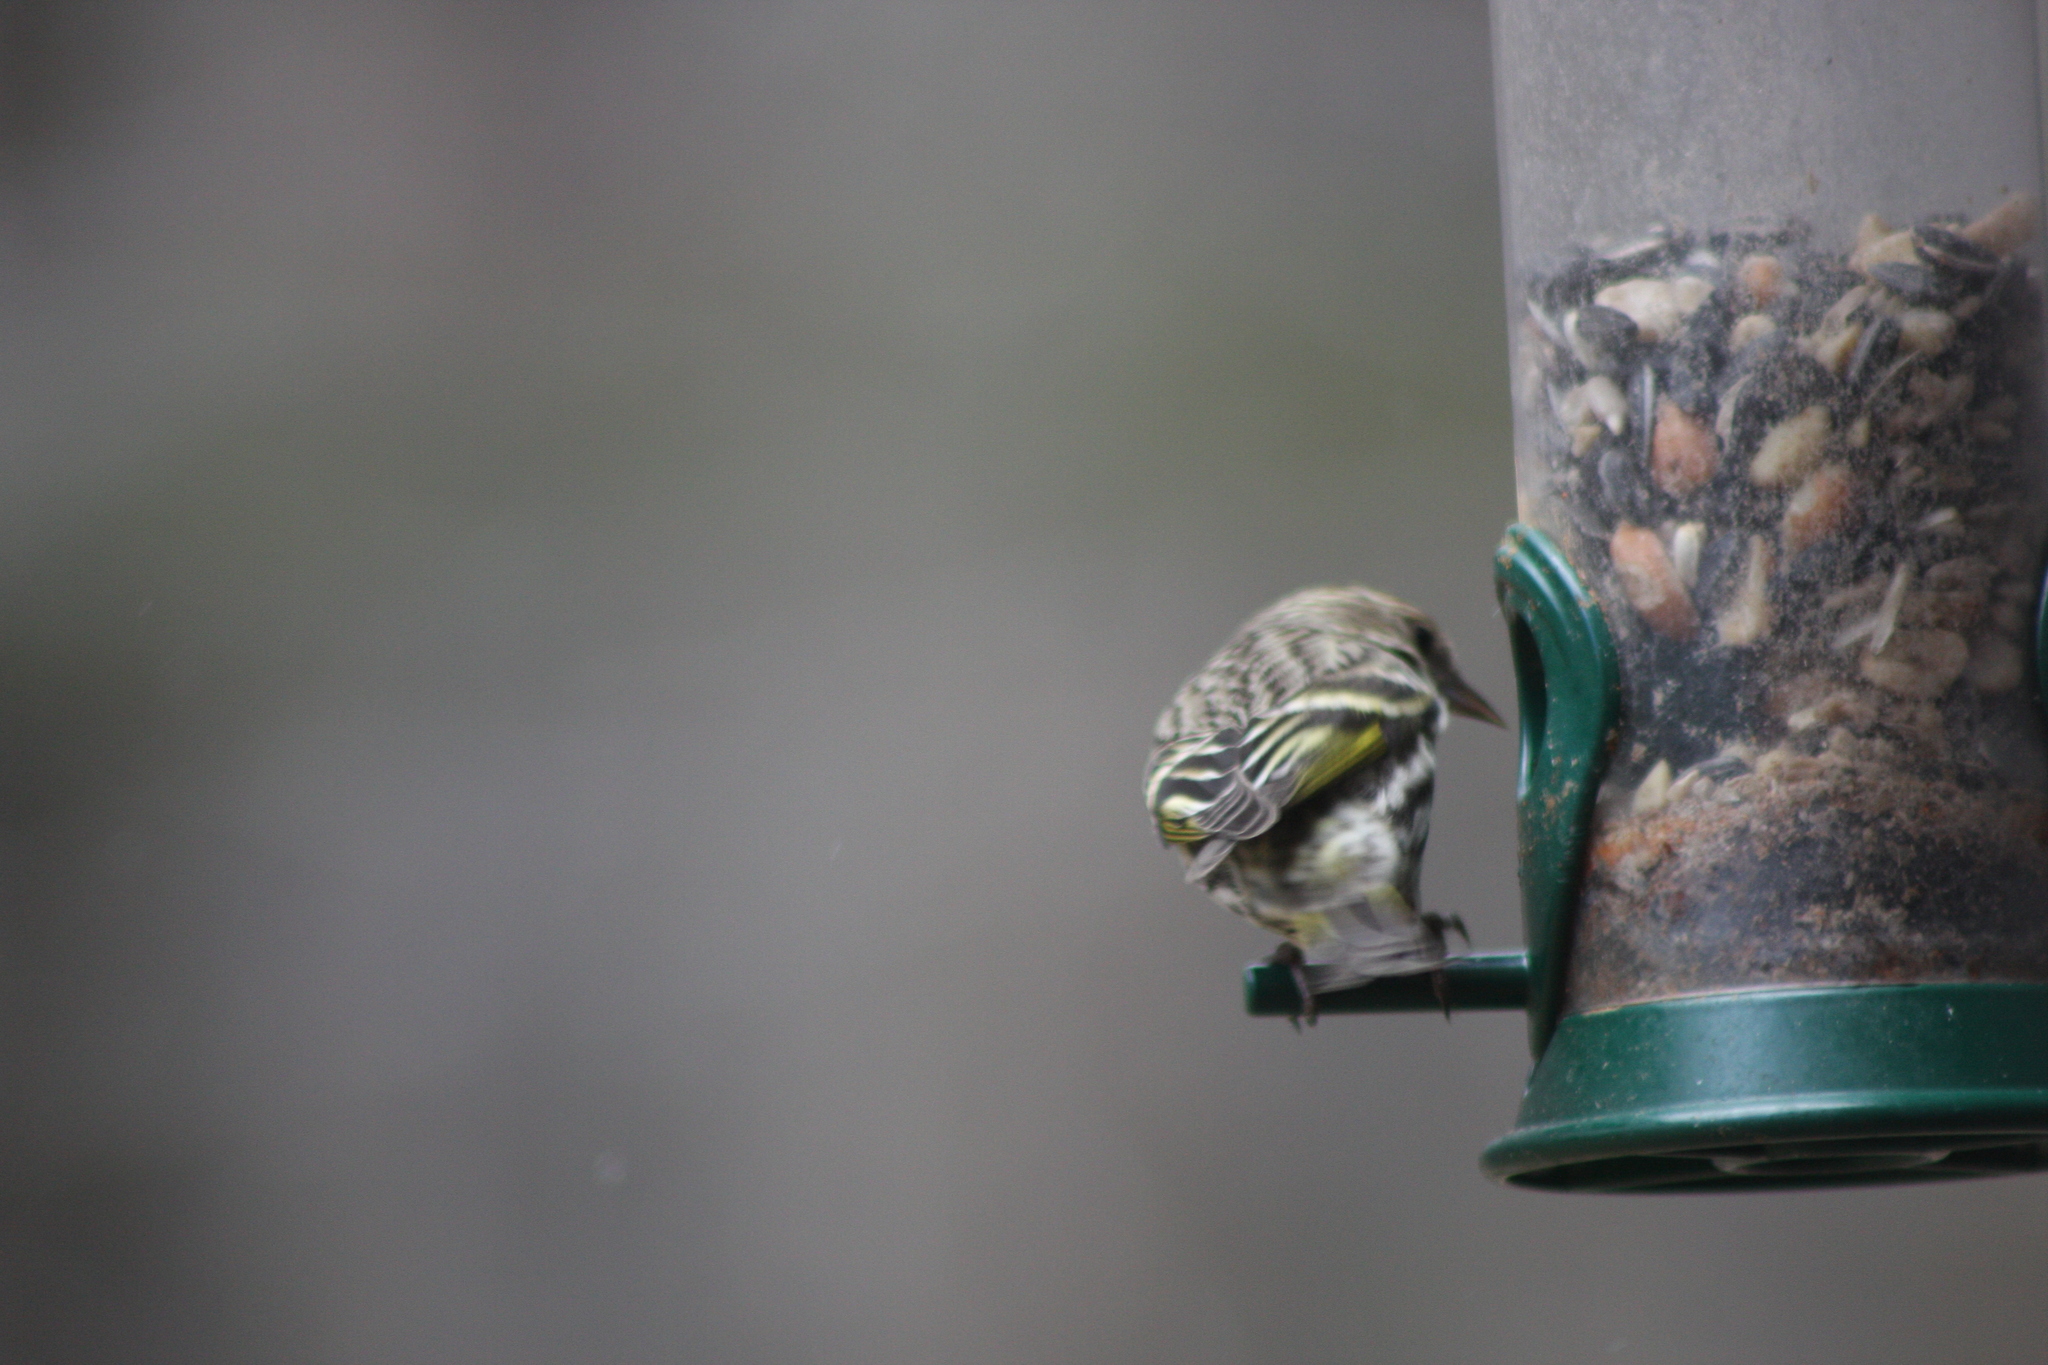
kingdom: Animalia
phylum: Chordata
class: Aves
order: Passeriformes
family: Fringillidae
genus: Spinus
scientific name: Spinus pinus
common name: Pine siskin
